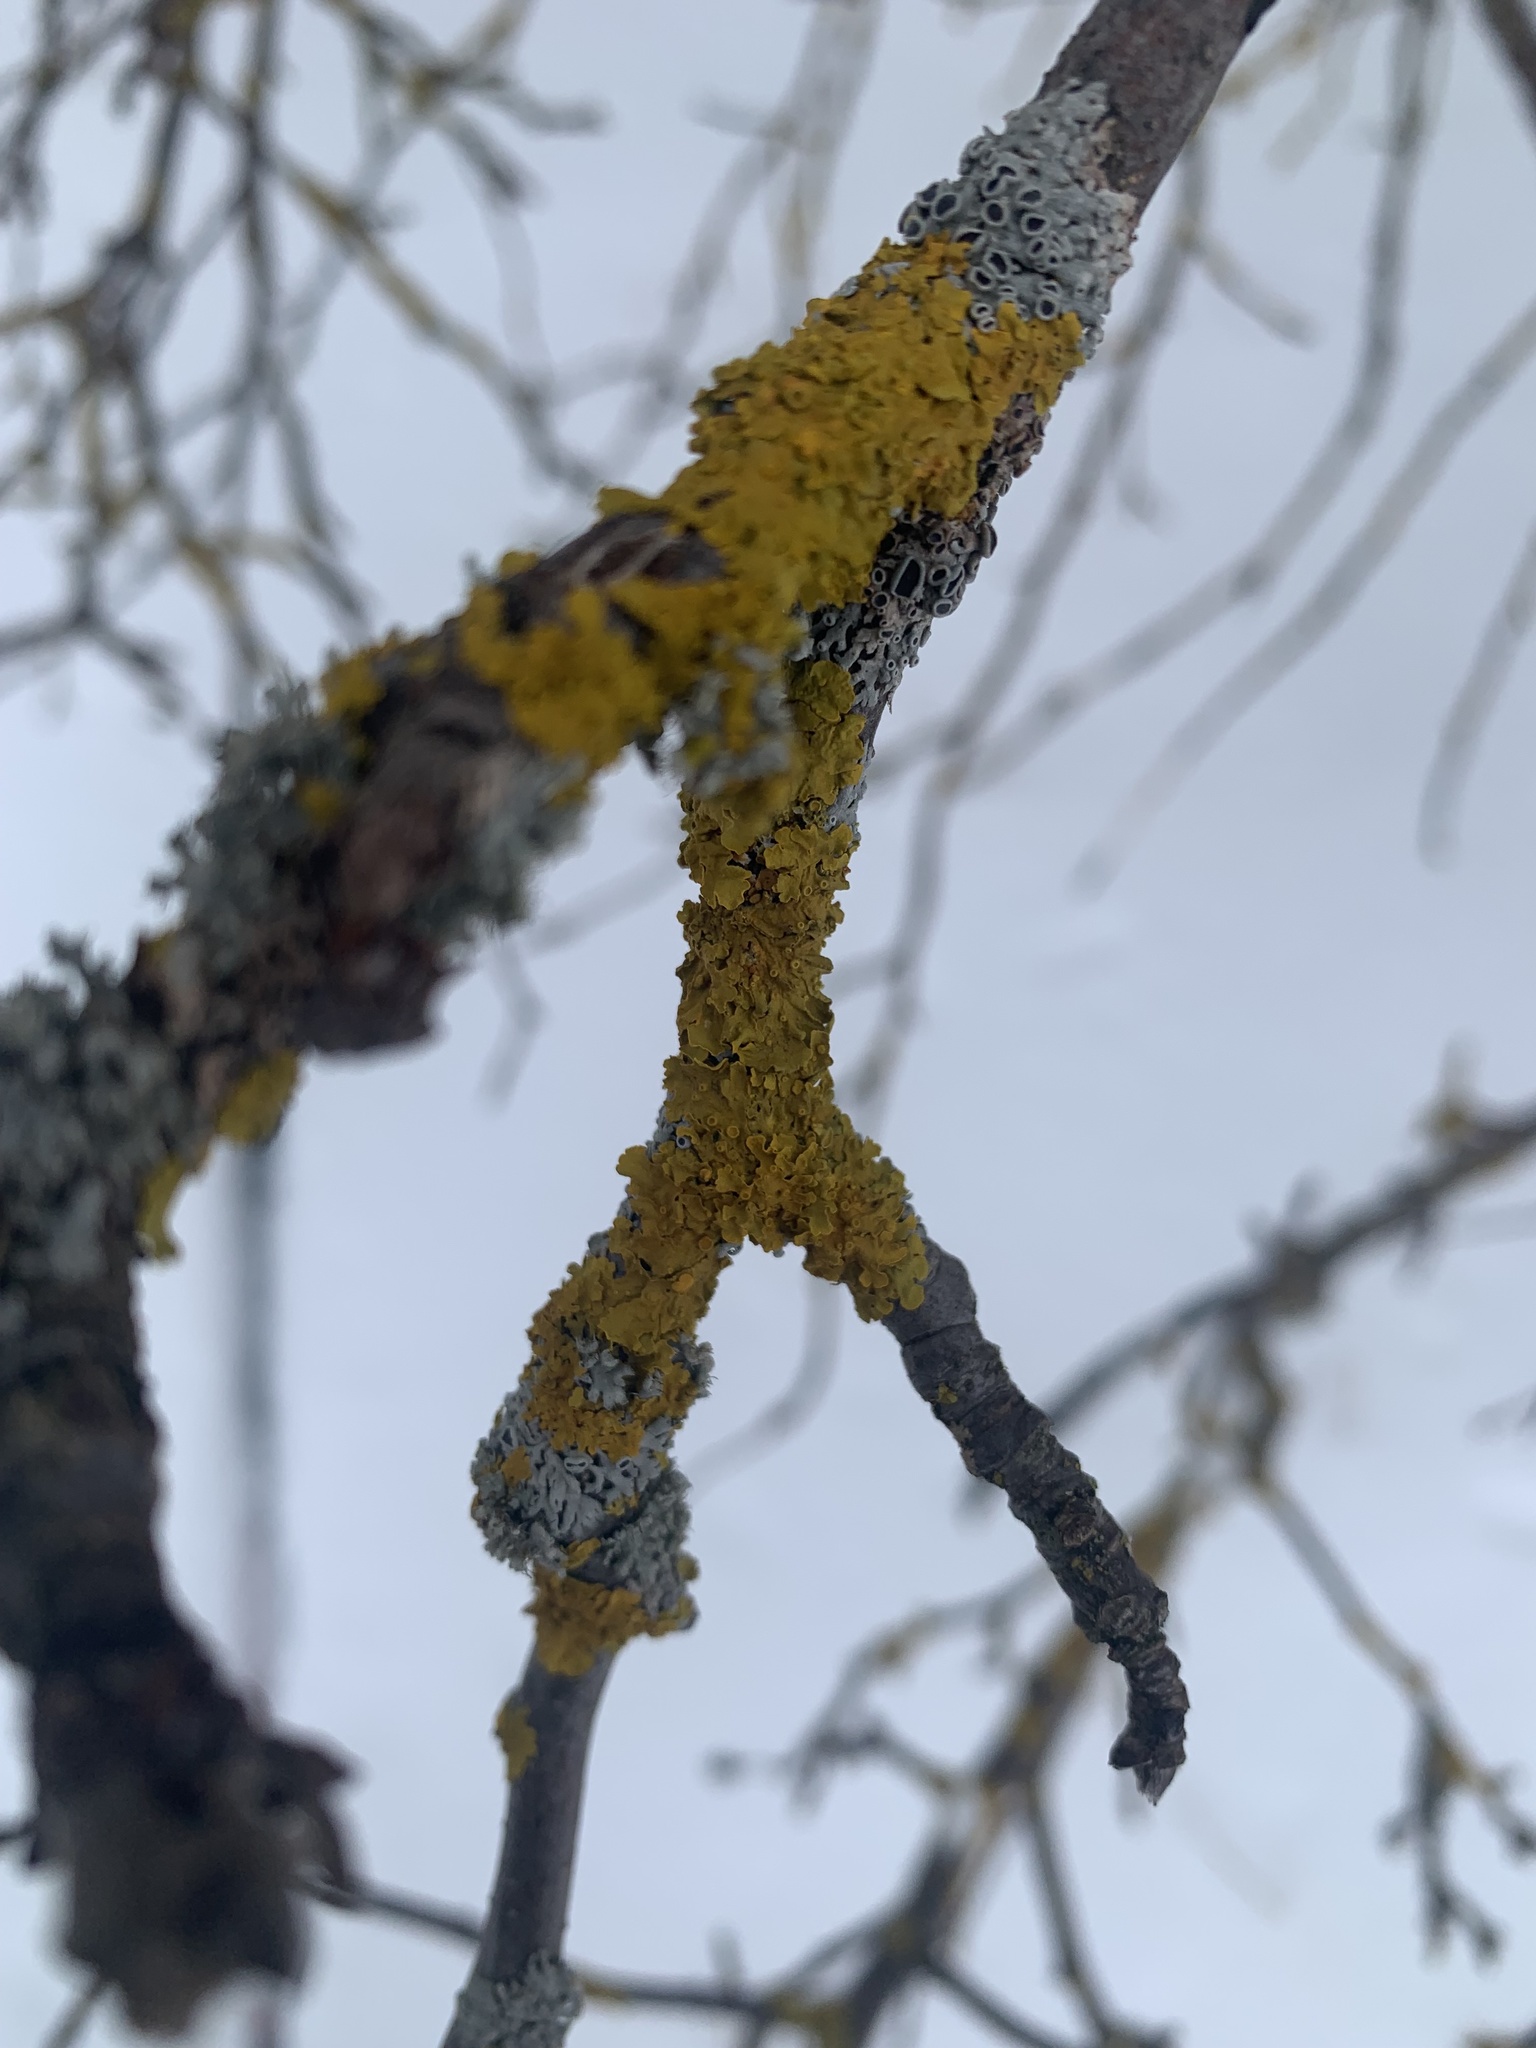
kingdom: Fungi
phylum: Ascomycota
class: Lecanoromycetes
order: Teloschistales
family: Teloschistaceae
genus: Xanthoria
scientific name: Xanthoria parietina
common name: Common orange lichen
